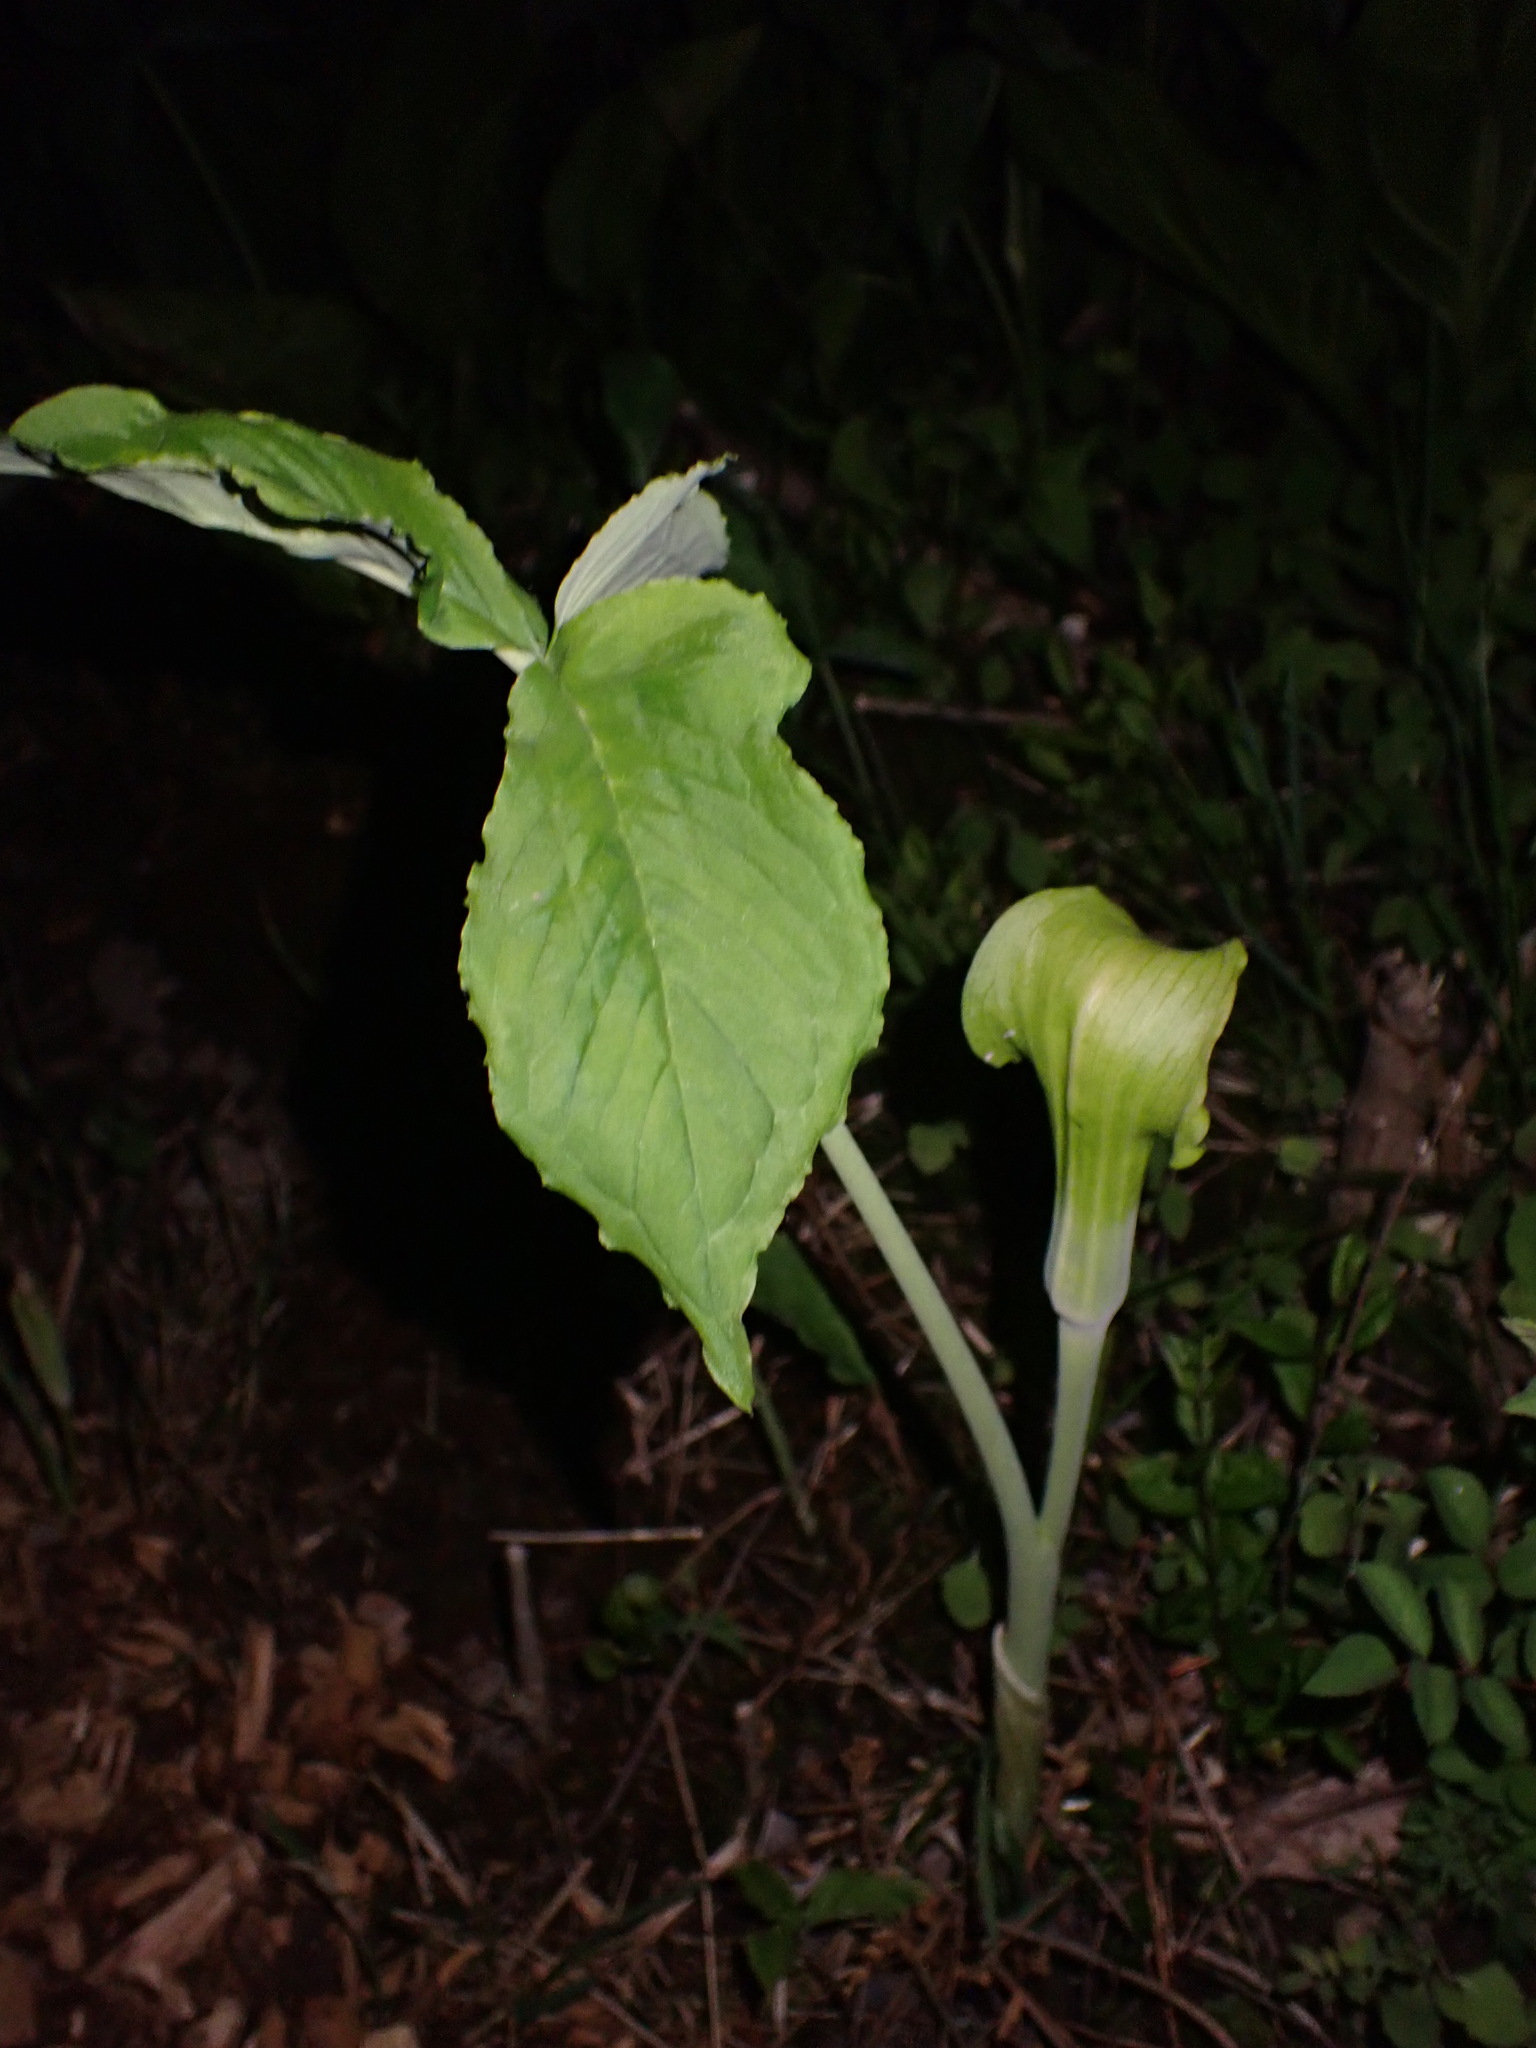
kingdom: Plantae
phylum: Tracheophyta
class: Liliopsida
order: Alismatales
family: Araceae
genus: Arisaema
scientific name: Arisaema triphyllum
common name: Jack-in-the-pulpit
